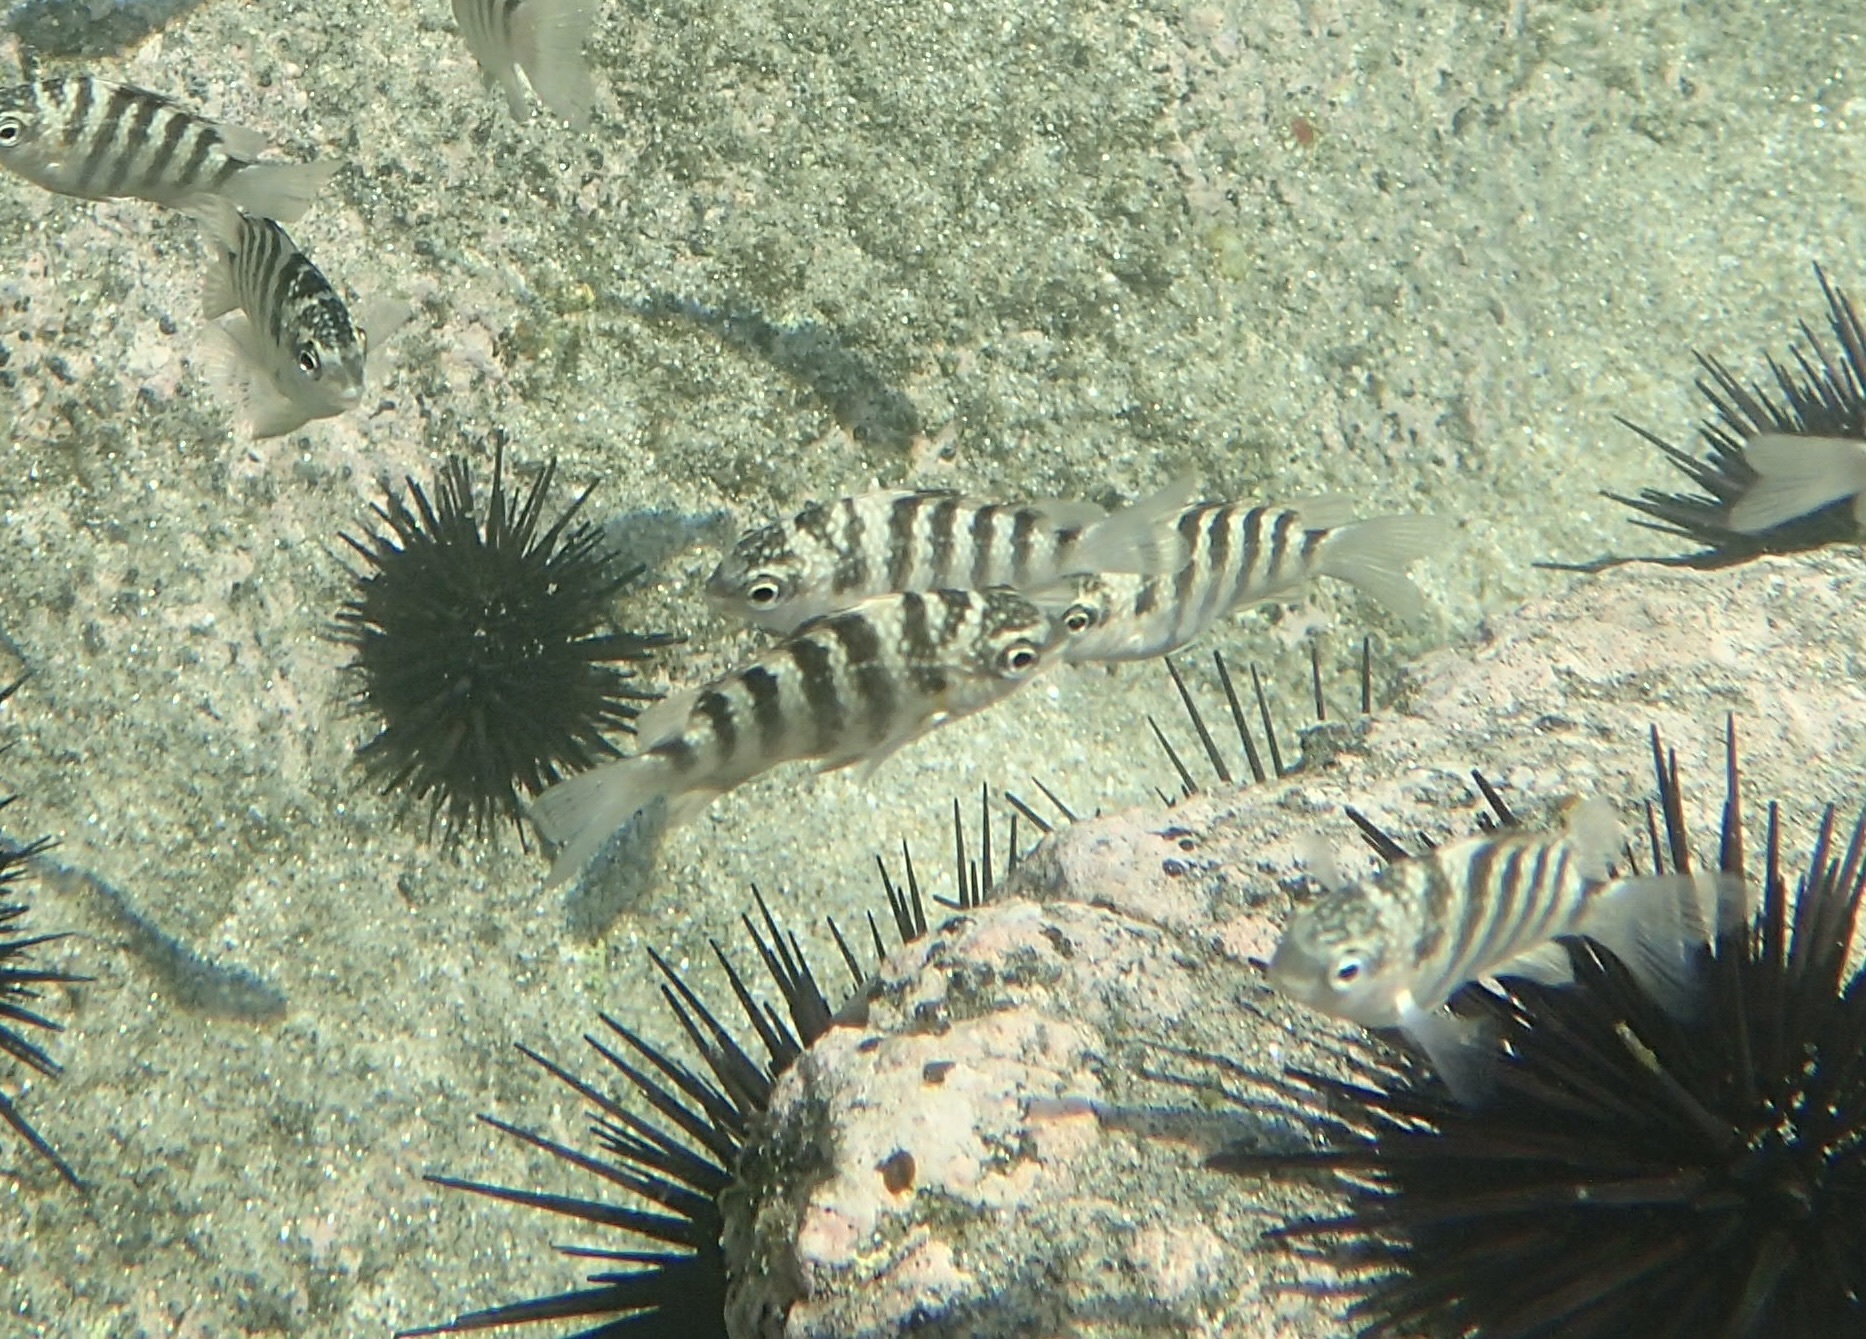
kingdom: Animalia
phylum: Chordata
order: Perciformes
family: Pomacentridae
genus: Abudefduf
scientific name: Abudefduf declivifrons
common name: Mexican night sergeant
